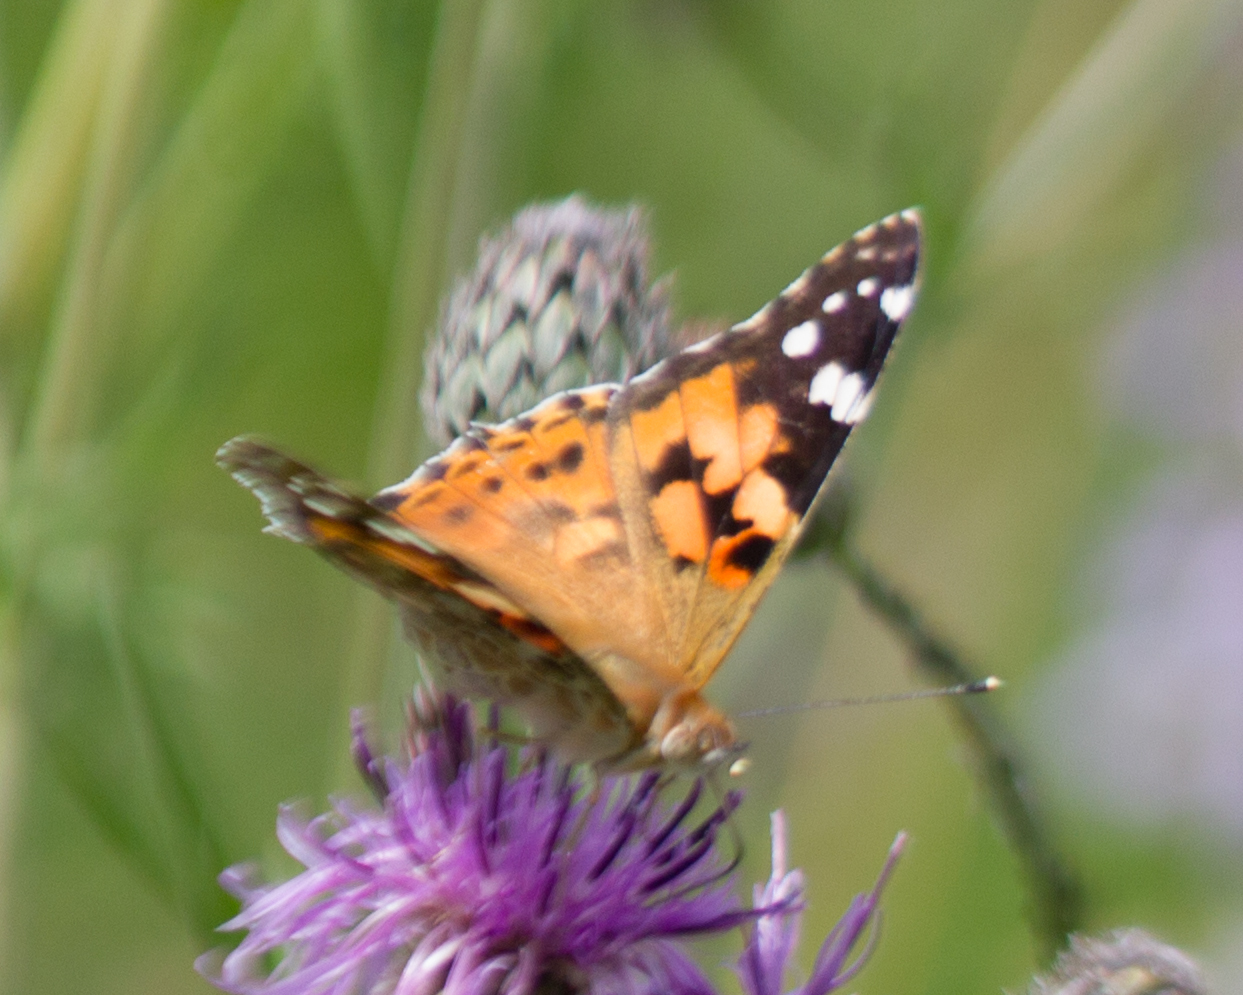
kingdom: Animalia
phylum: Arthropoda
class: Insecta
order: Lepidoptera
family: Nymphalidae
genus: Vanessa
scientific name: Vanessa cardui
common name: Painted lady
